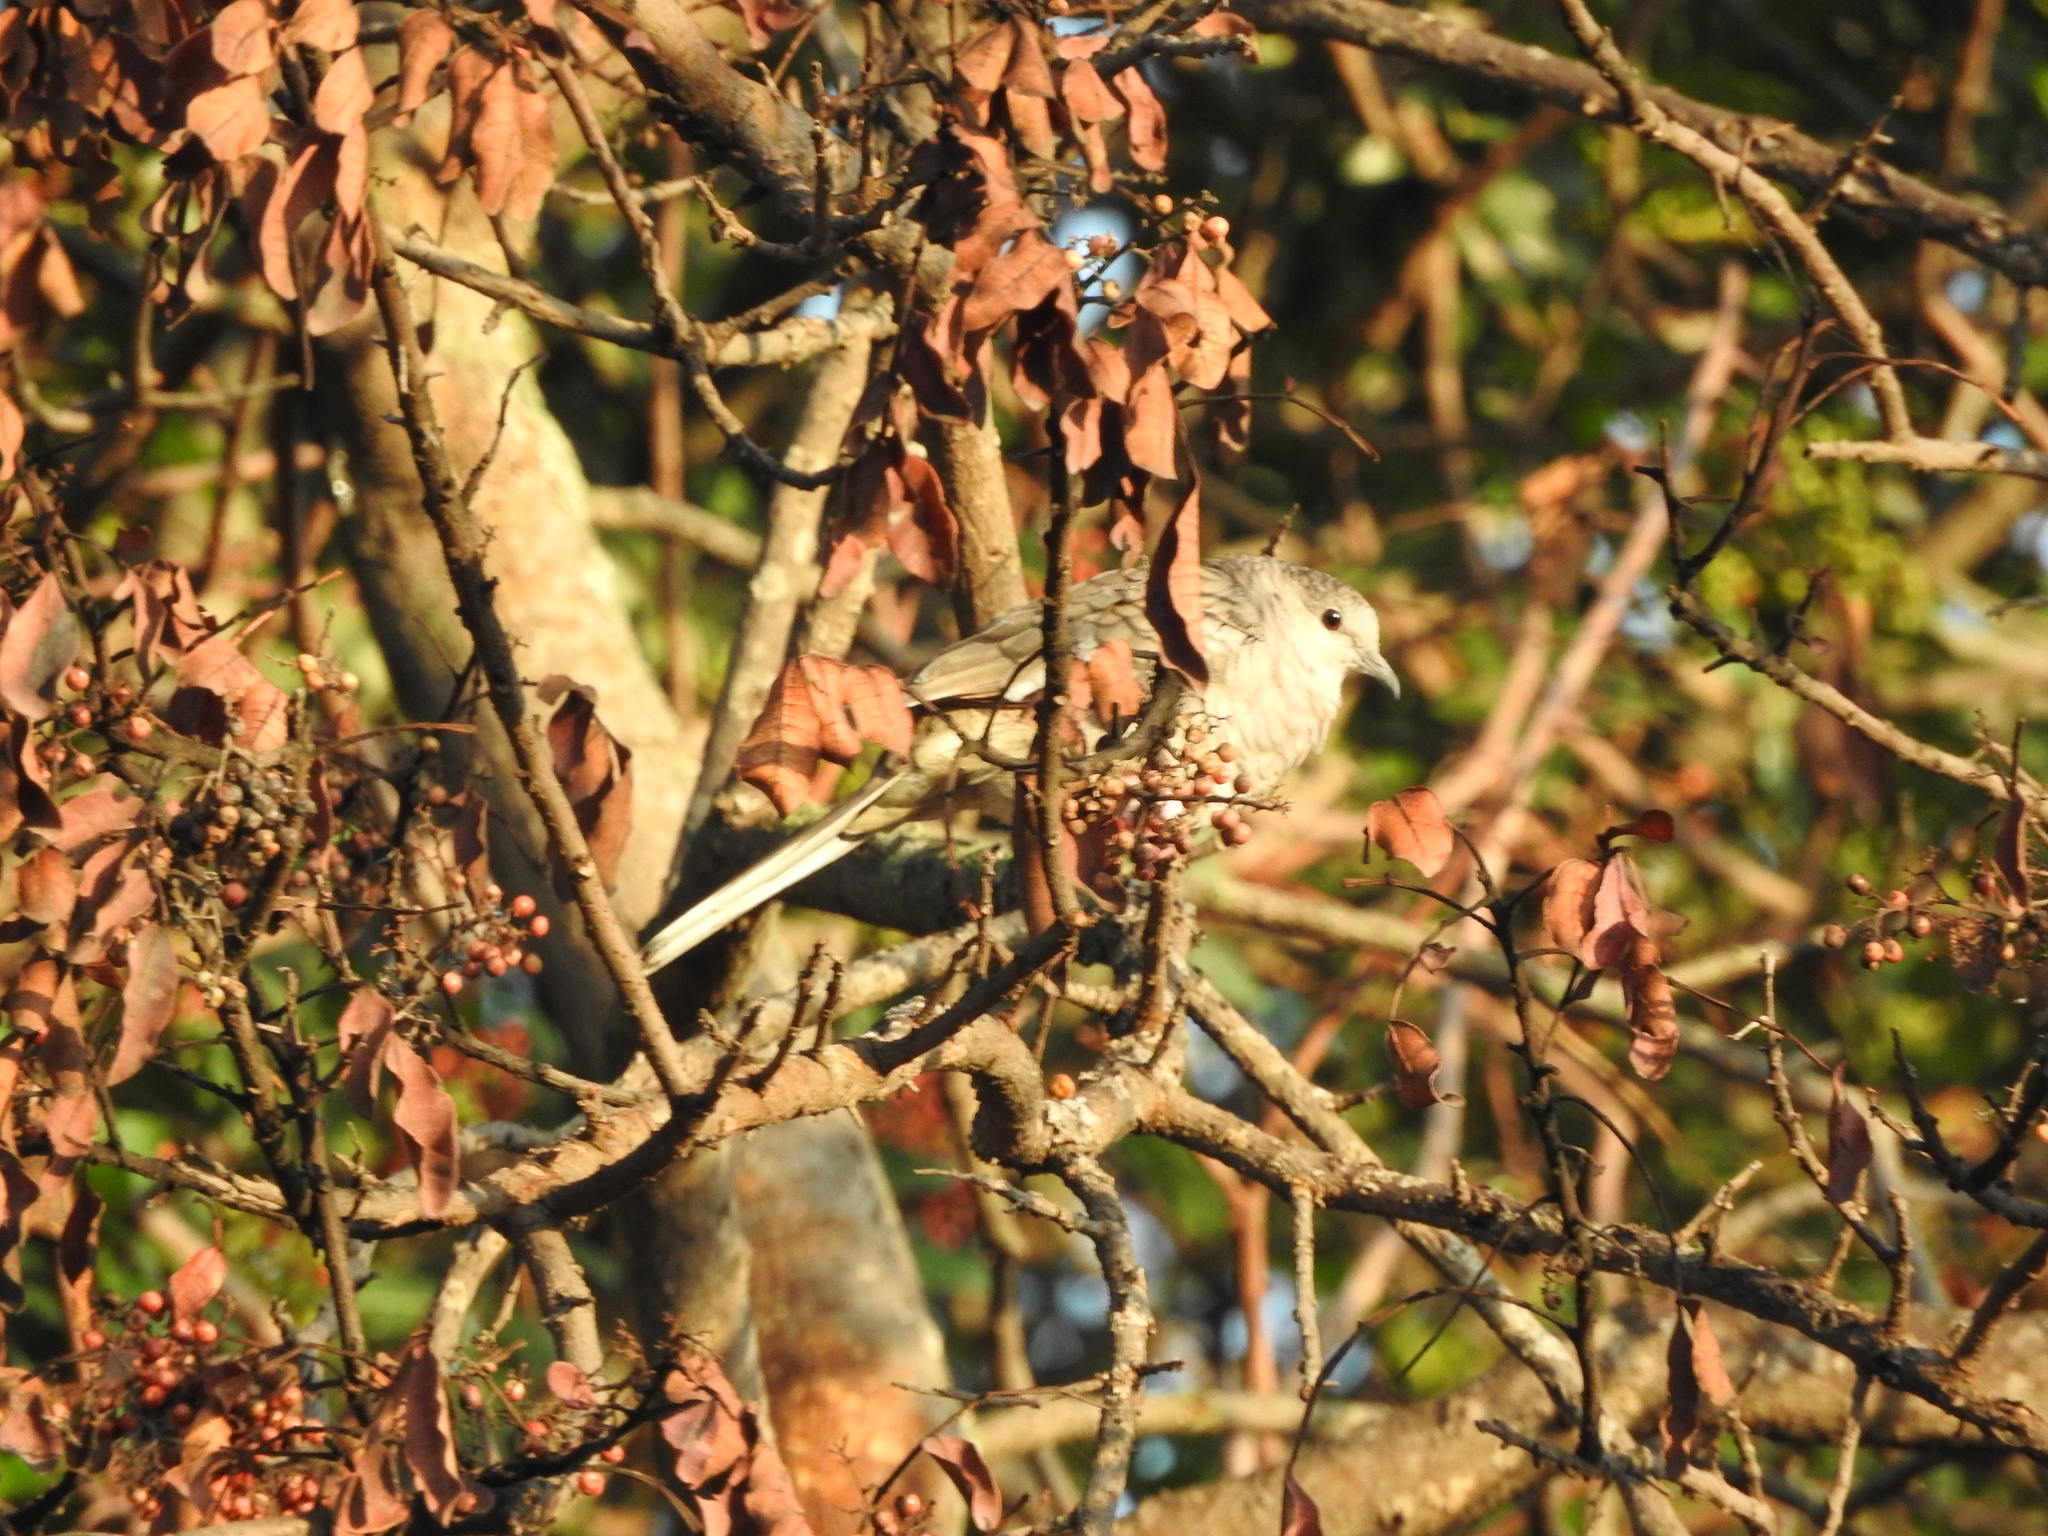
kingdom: Animalia
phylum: Chordata
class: Aves
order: Columbiformes
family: Columbidae
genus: Columbina
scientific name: Columbina inca
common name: Inca dove
